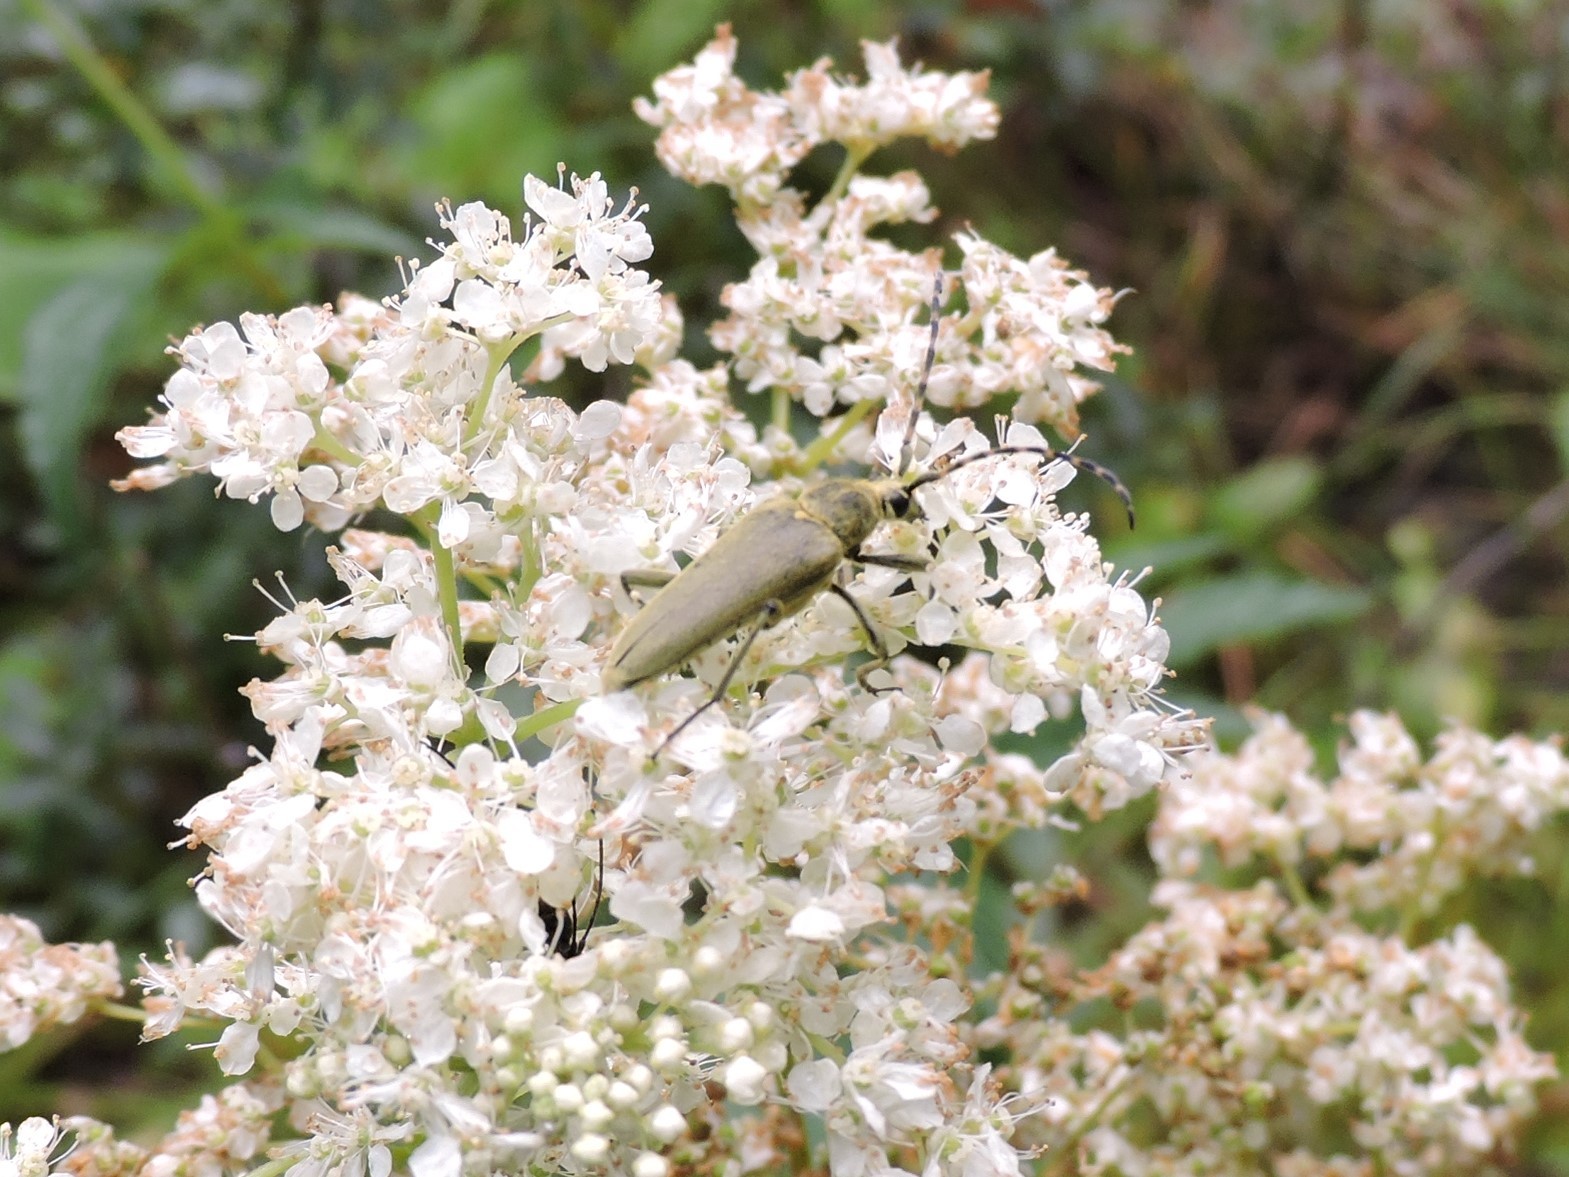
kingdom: Animalia
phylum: Arthropoda
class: Insecta
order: Coleoptera
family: Cerambycidae
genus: Lepturobosca
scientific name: Lepturobosca virens
